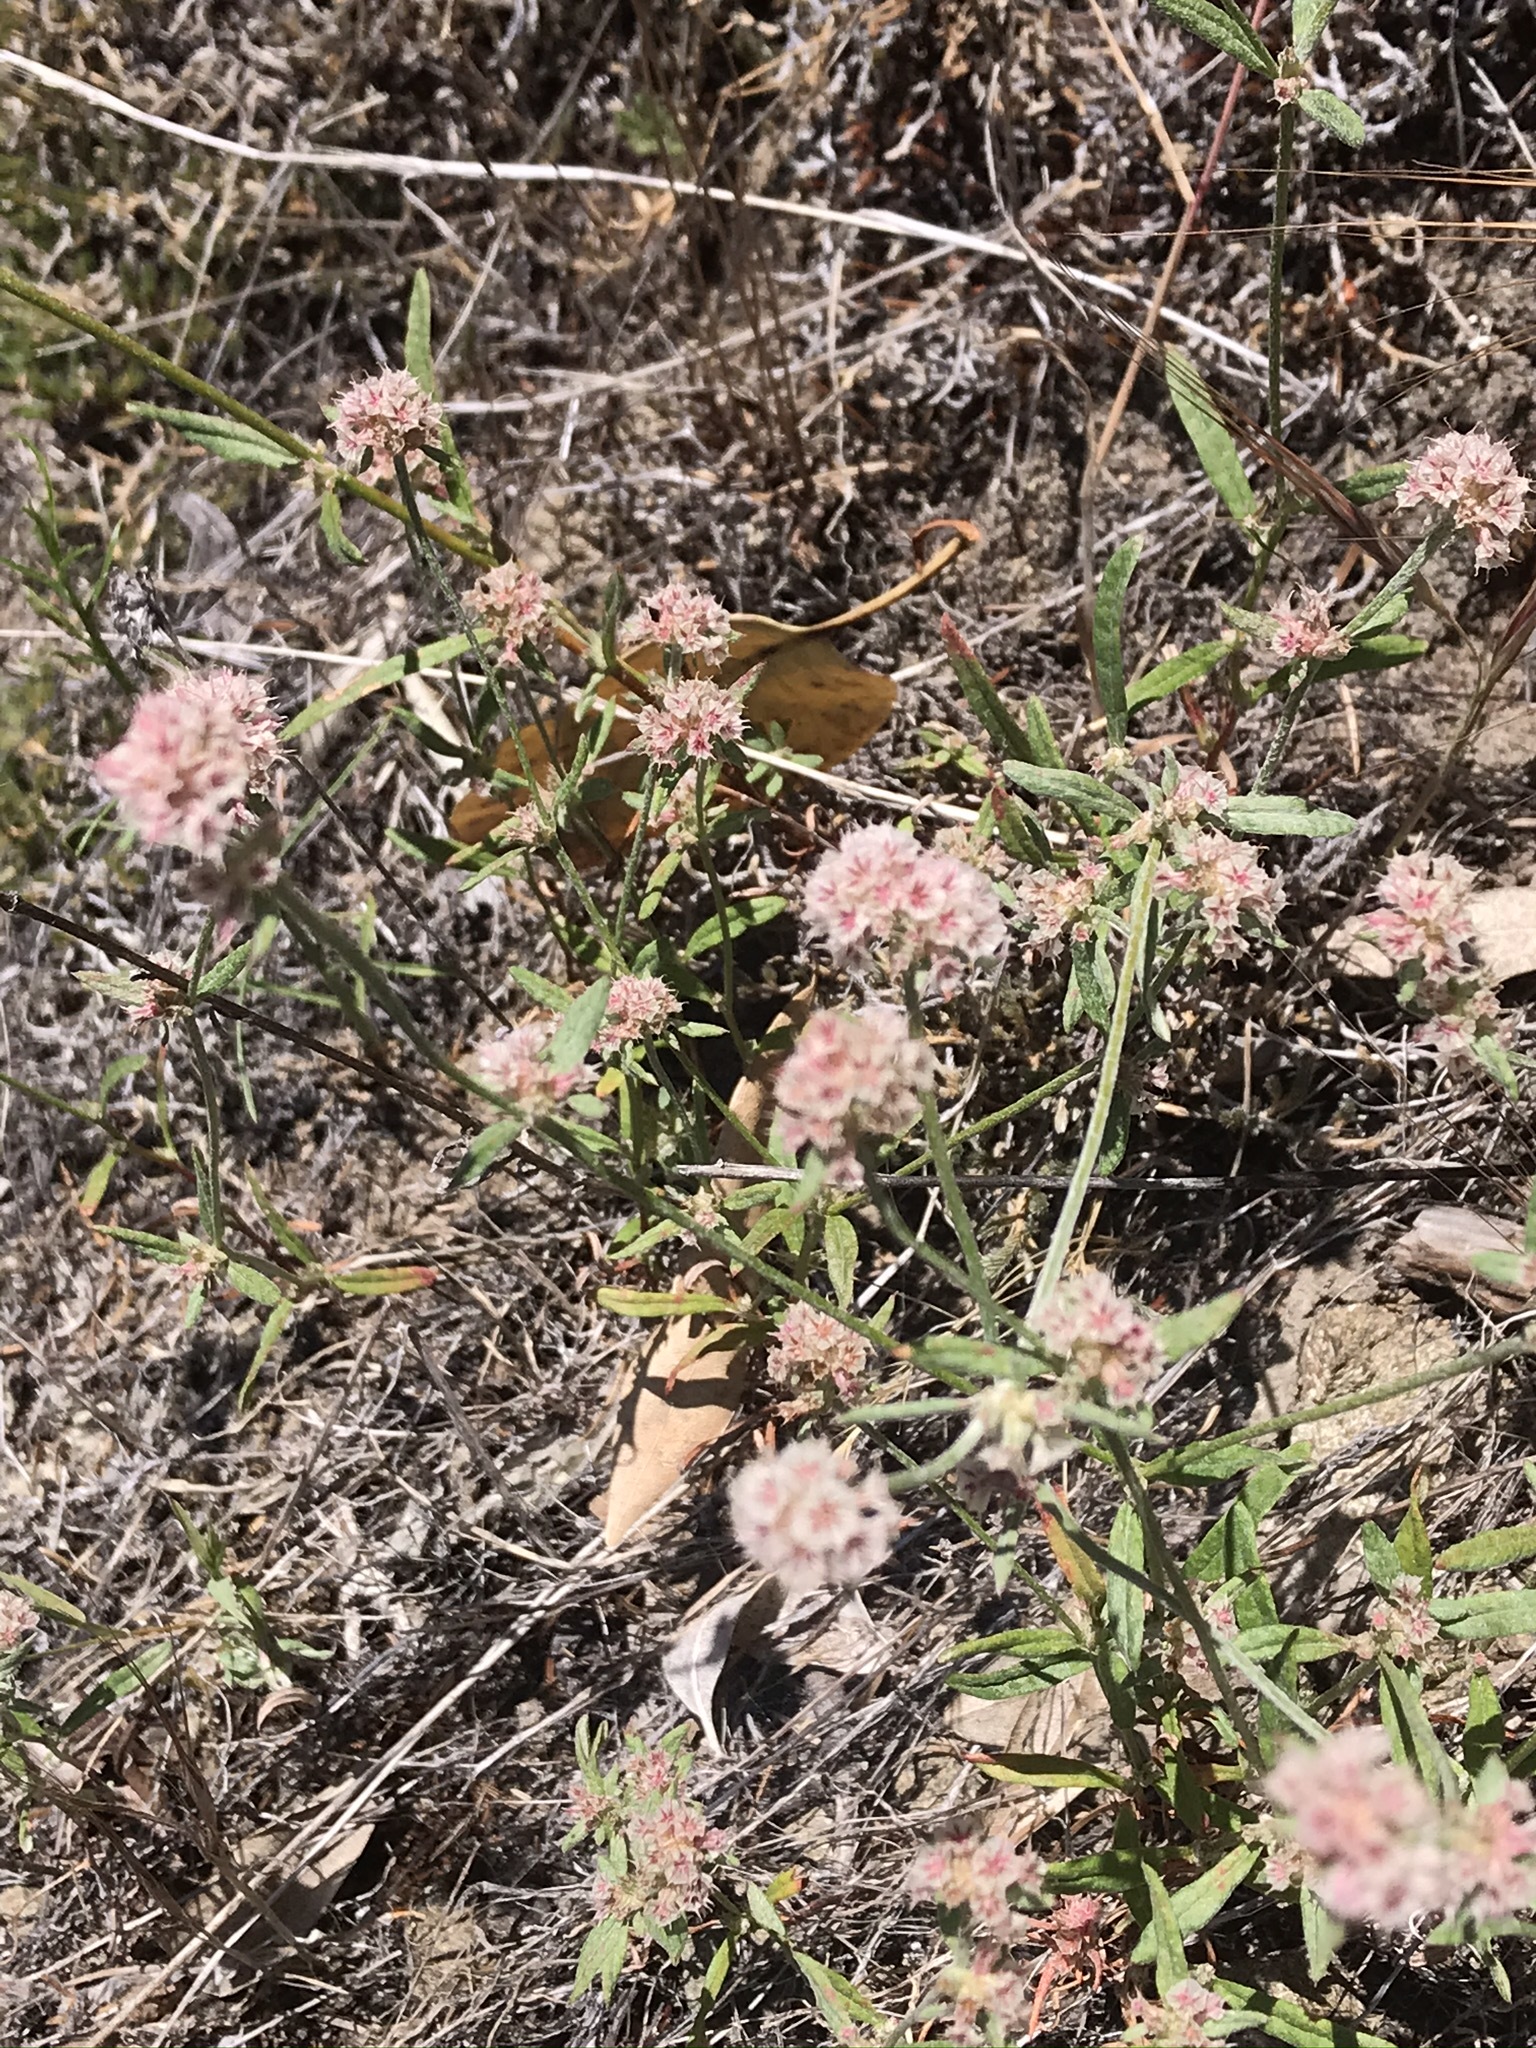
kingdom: Plantae
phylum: Tracheophyta
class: Magnoliopsida
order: Caryophyllales
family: Polygonaceae
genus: Chorizanthe
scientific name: Chorizanthe membranacea
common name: Pink spineflower
